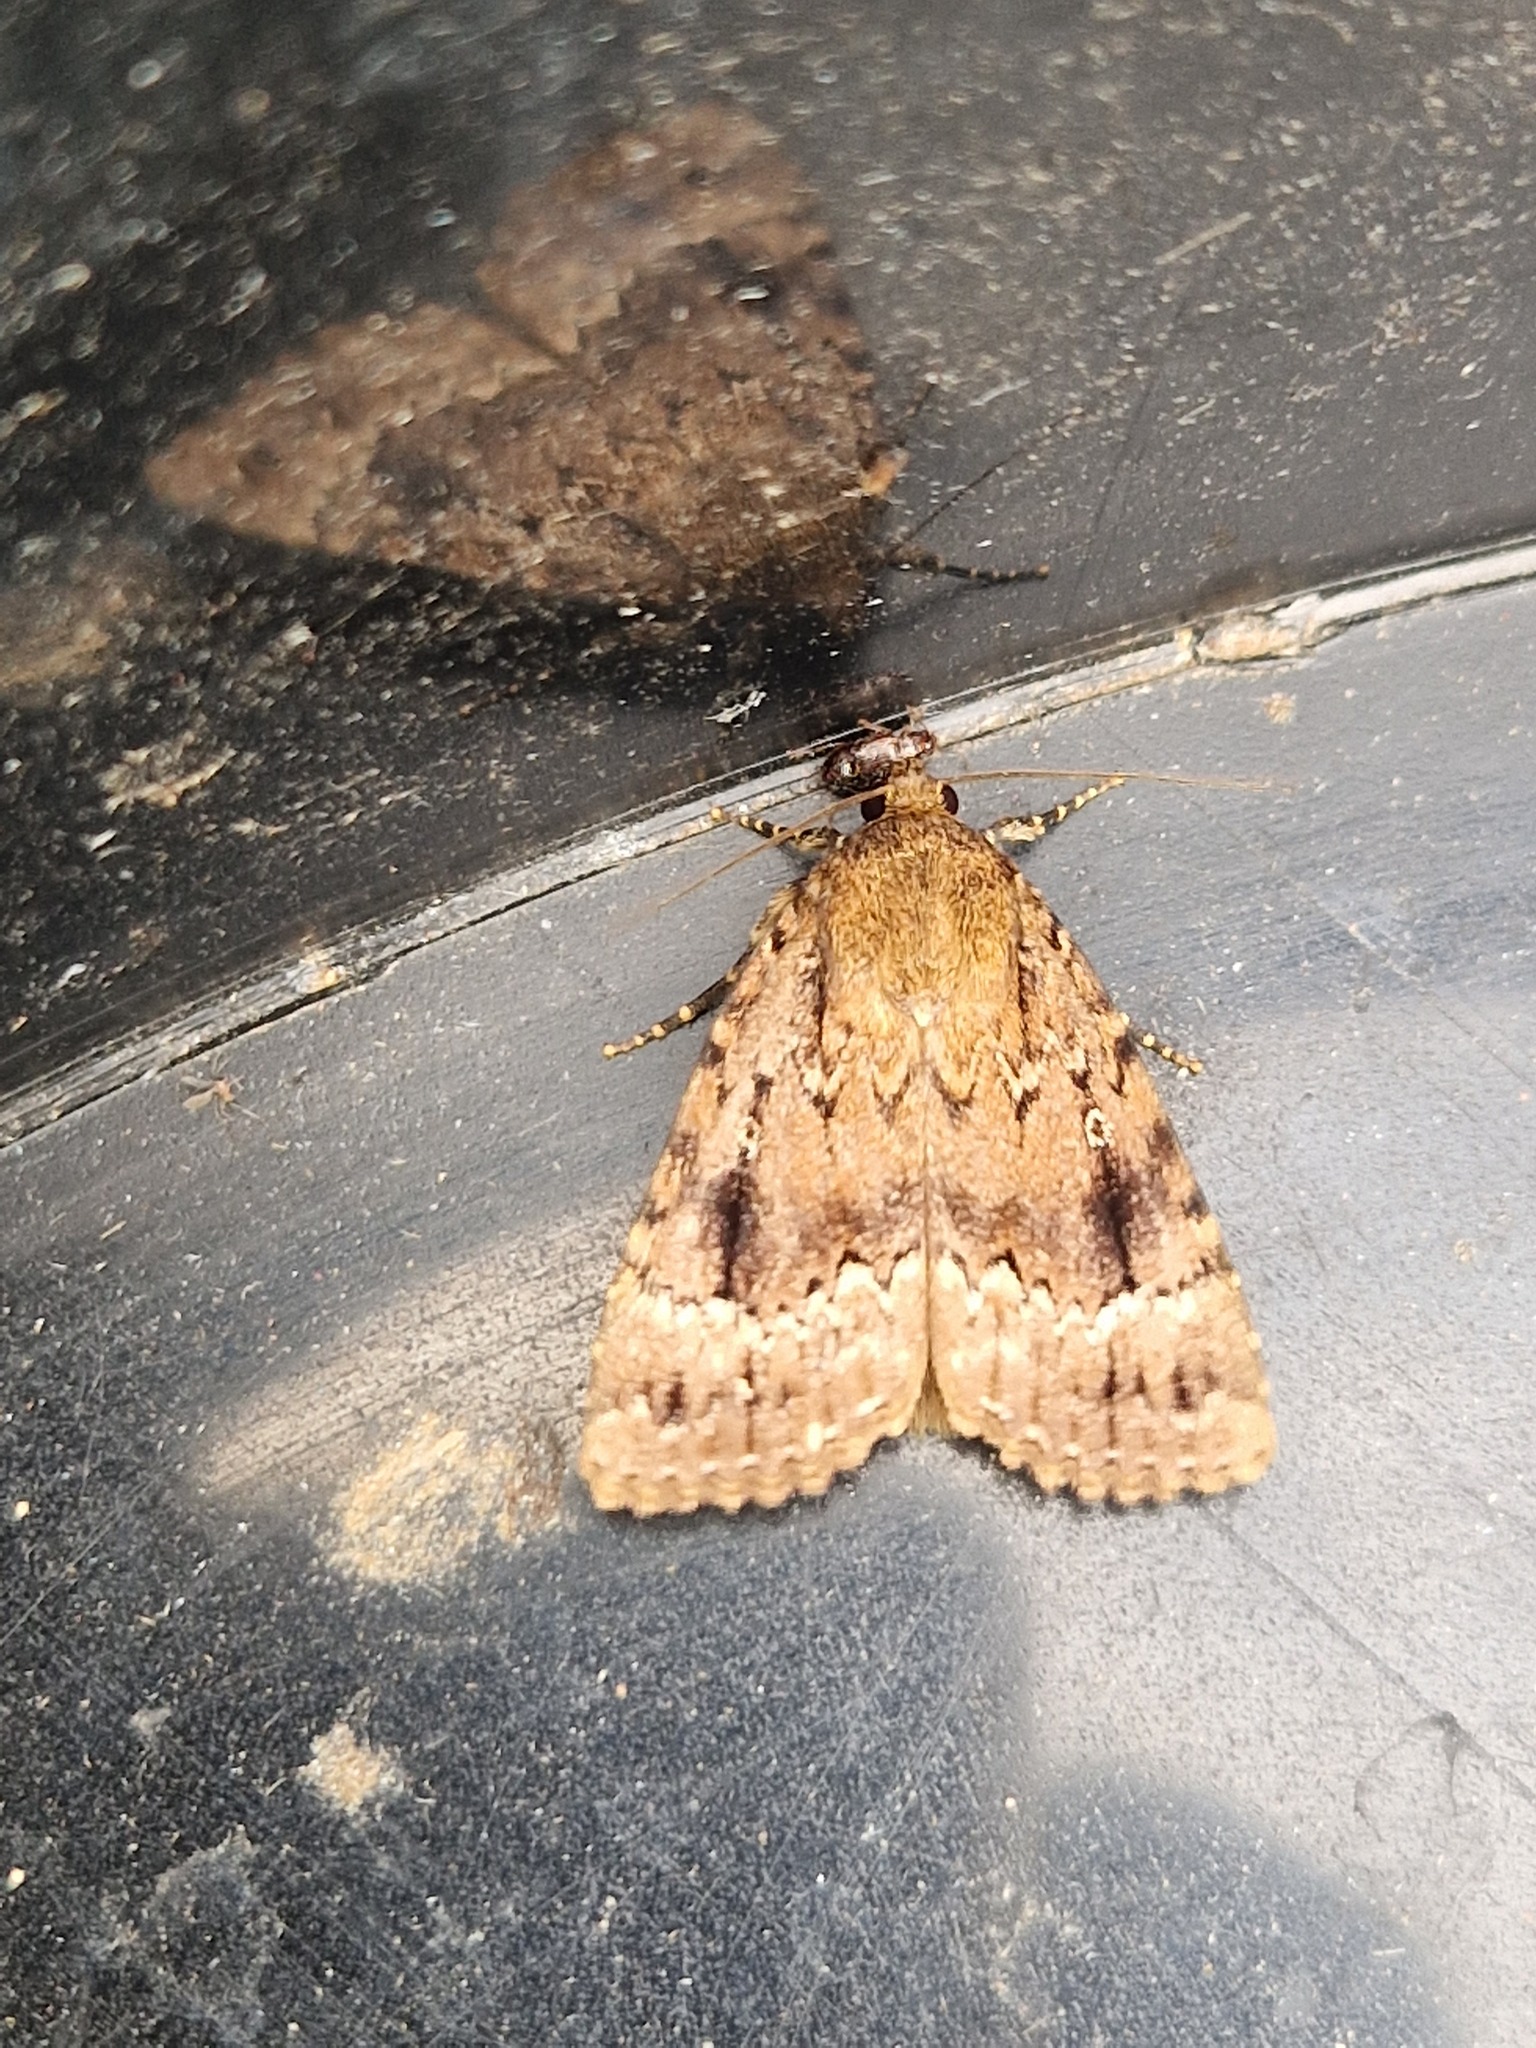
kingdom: Animalia
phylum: Arthropoda
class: Insecta
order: Lepidoptera
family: Noctuidae
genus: Amphipyra
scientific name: Amphipyra pyramidea
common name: Copper underwing
